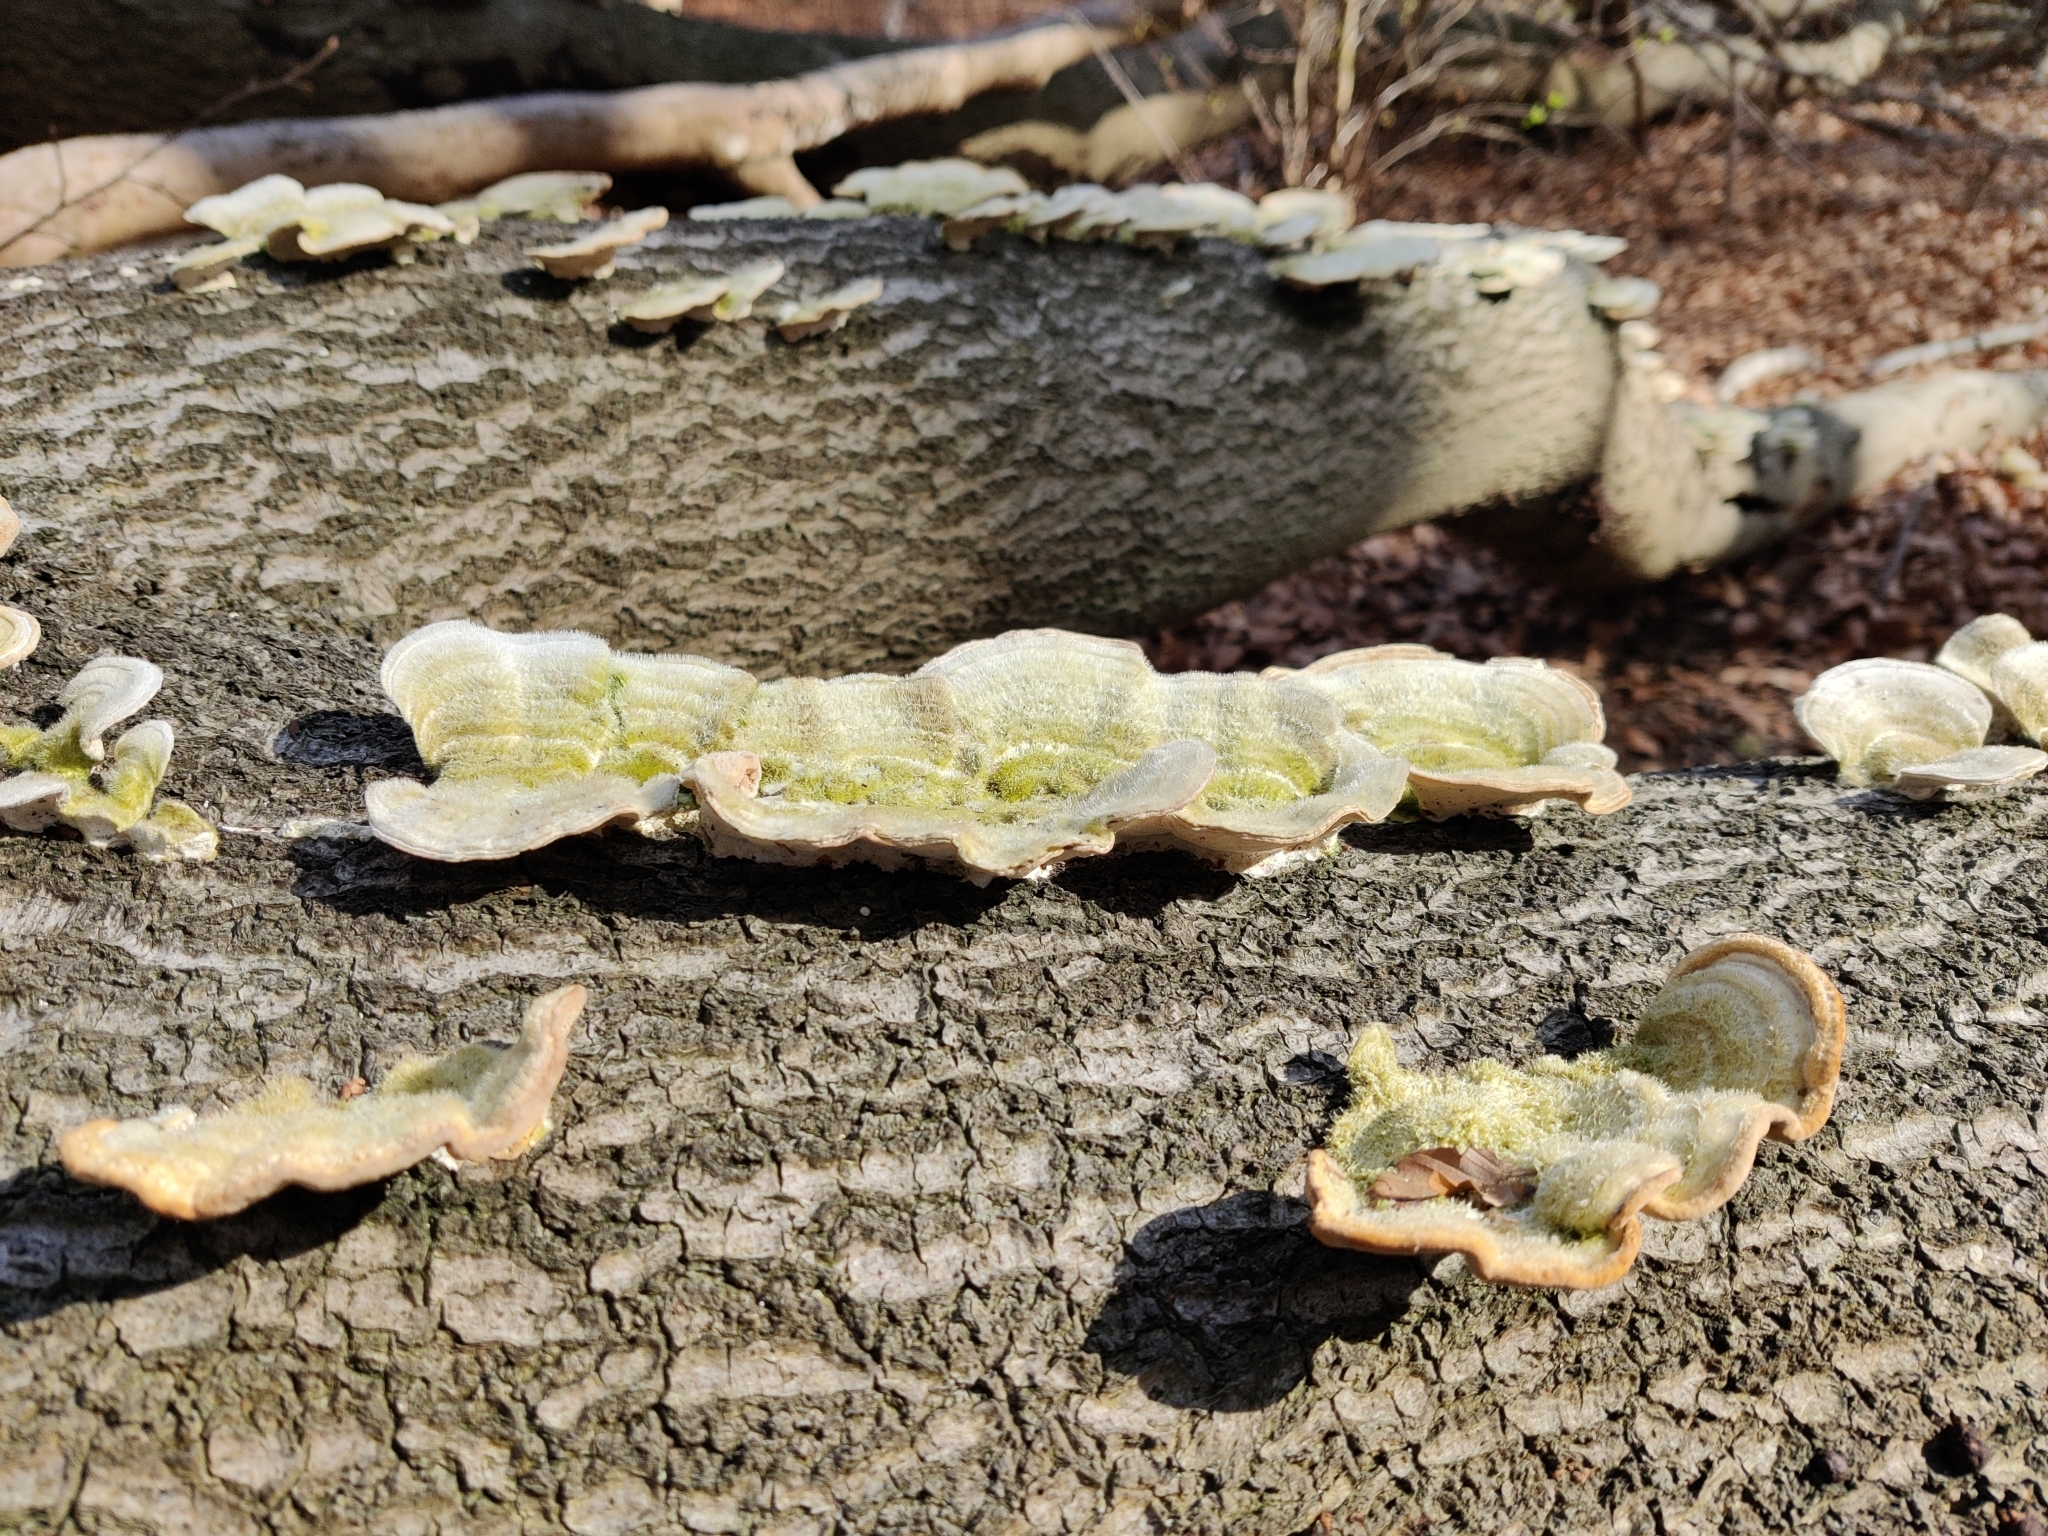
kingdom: Fungi
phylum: Basidiomycota
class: Agaricomycetes
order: Polyporales
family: Polyporaceae
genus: Trametes
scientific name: Trametes hirsuta
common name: Hairy bracket
